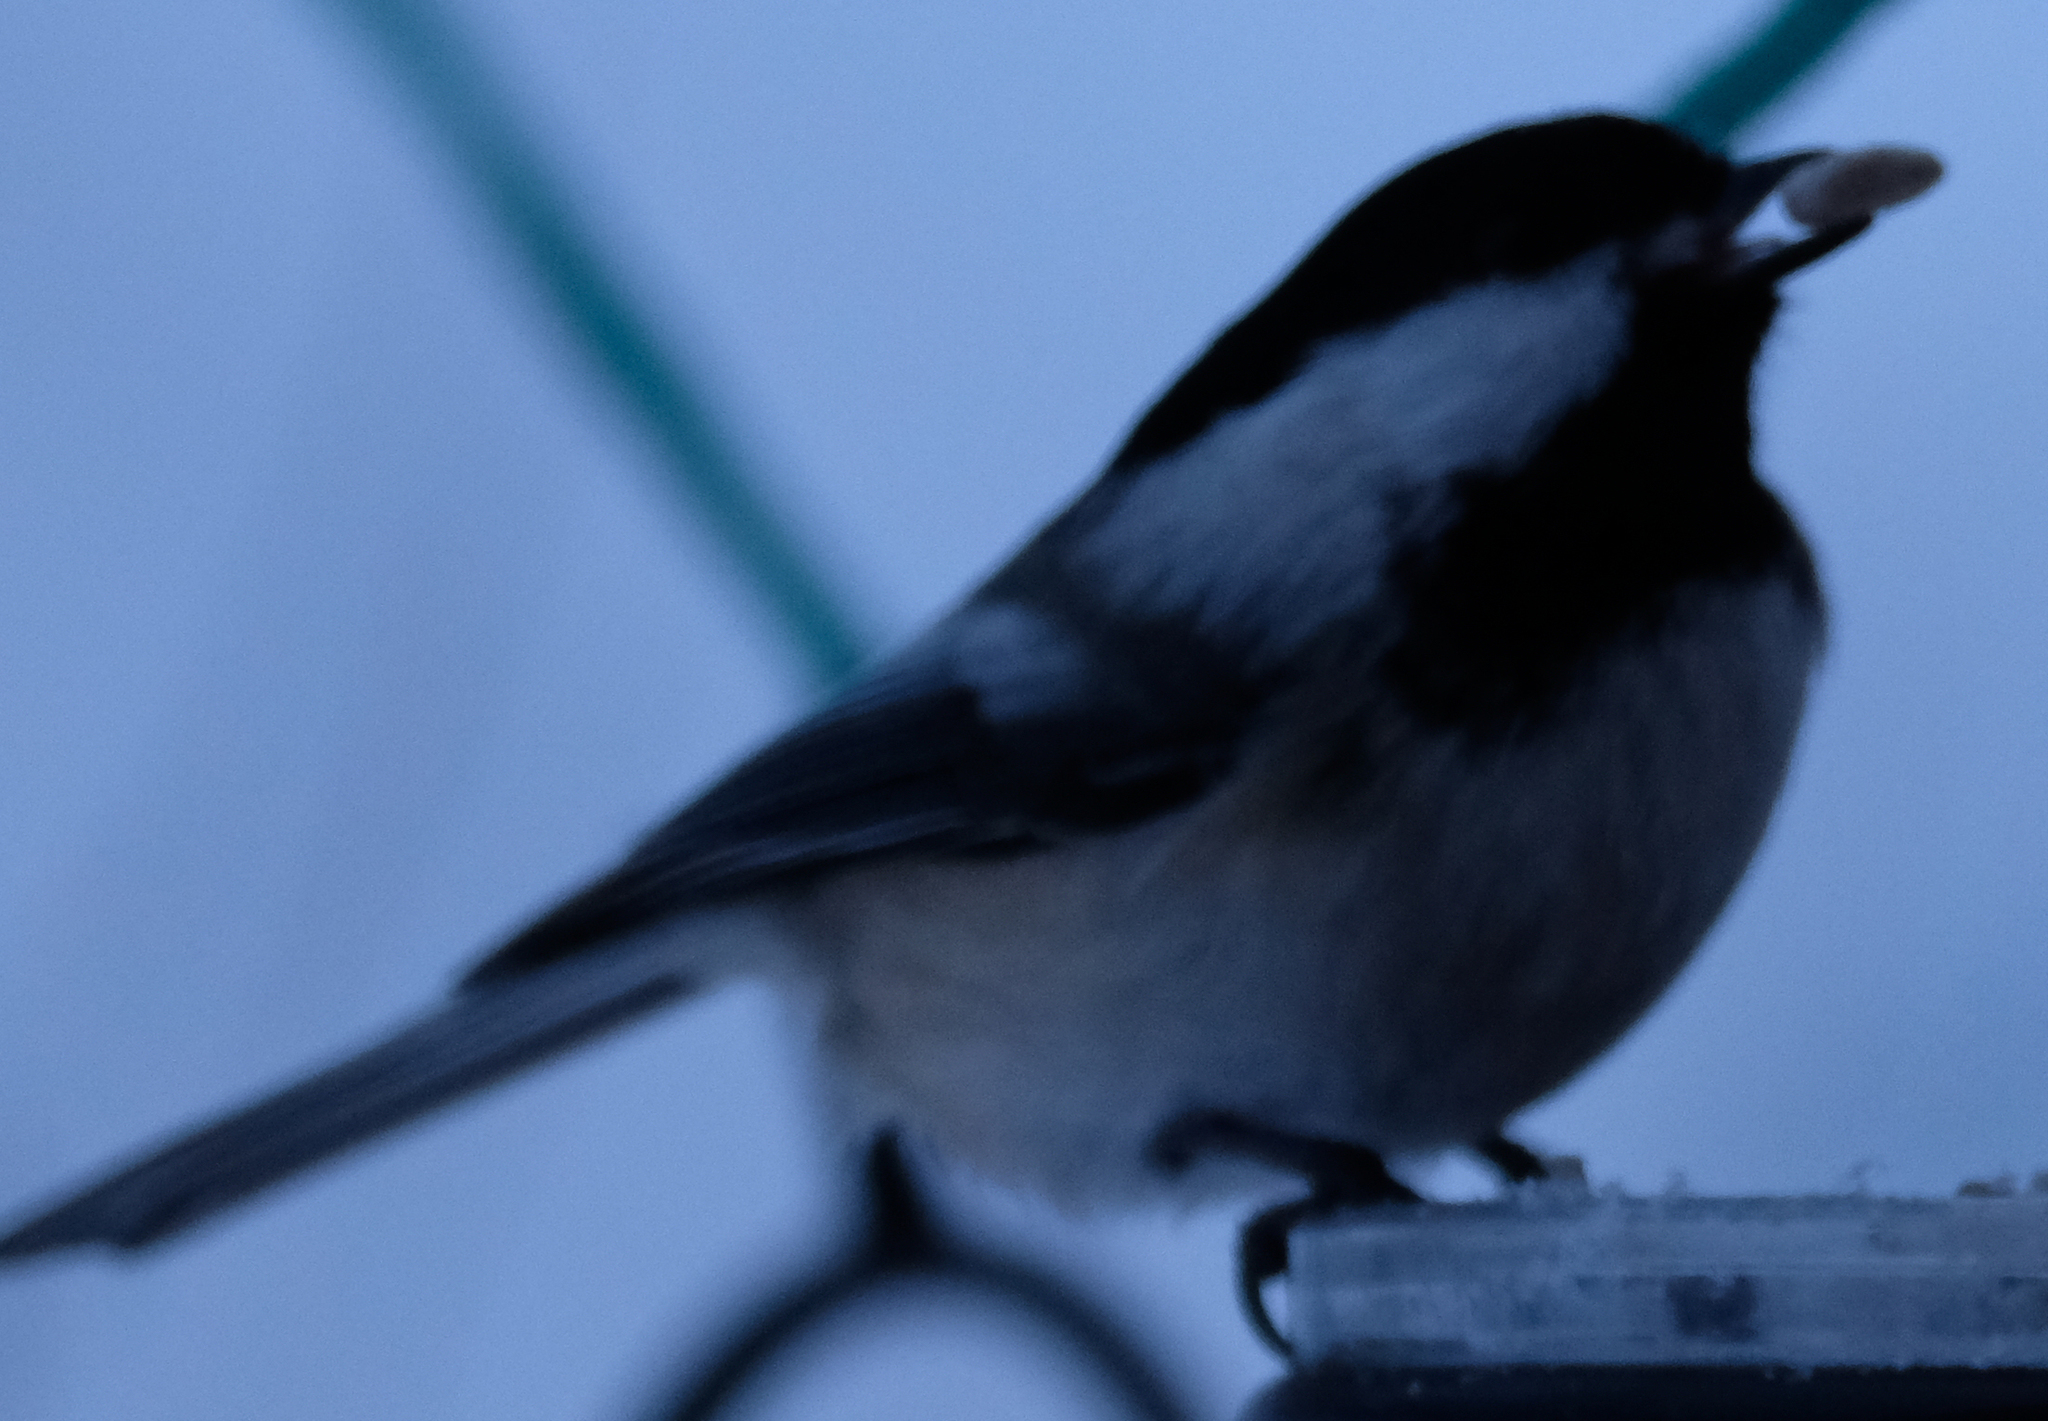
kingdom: Animalia
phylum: Chordata
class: Aves
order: Passeriformes
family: Paridae
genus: Poecile
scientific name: Poecile atricapillus
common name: Black-capped chickadee
